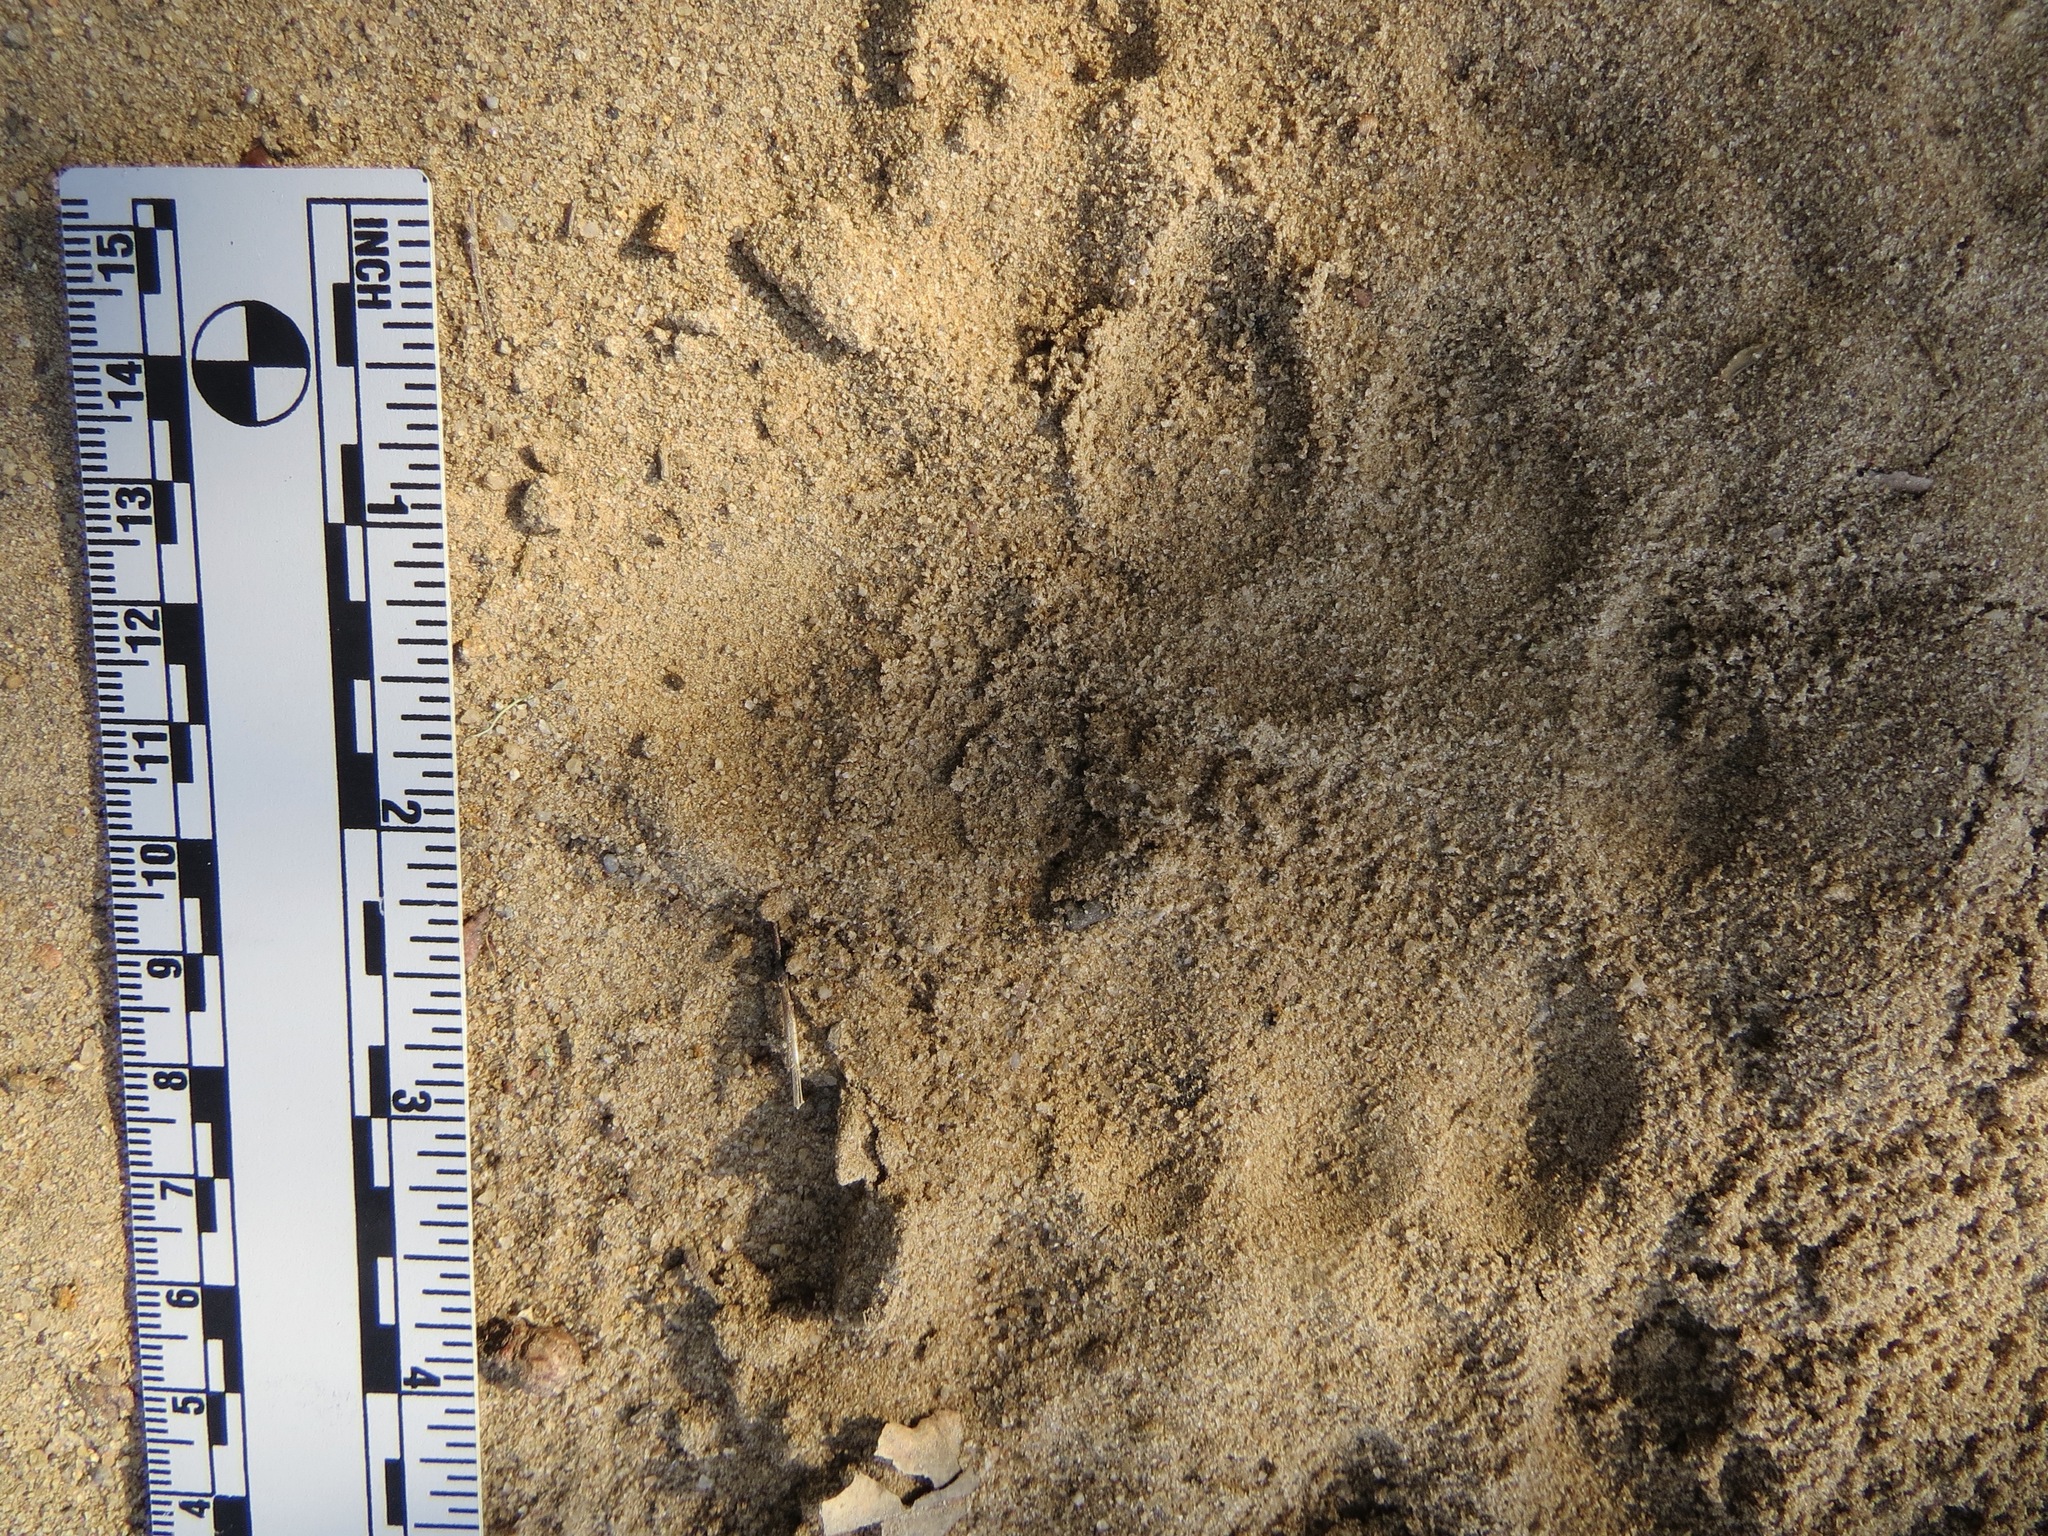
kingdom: Animalia
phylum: Chordata
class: Mammalia
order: Carnivora
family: Felidae
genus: Puma
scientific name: Puma concolor
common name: Puma
